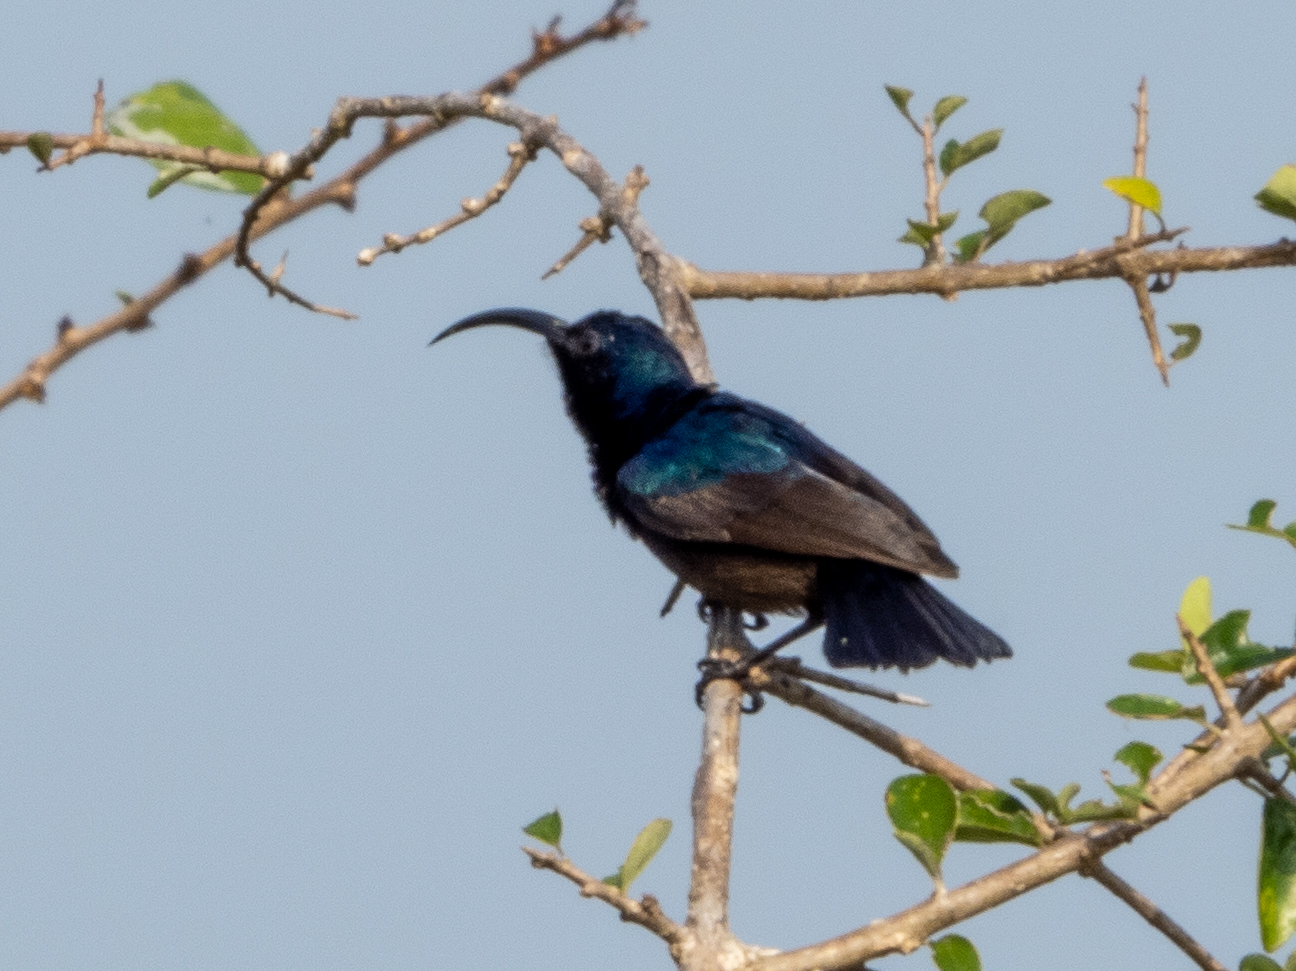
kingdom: Animalia
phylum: Chordata
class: Aves
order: Passeriformes
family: Nectariniidae
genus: Cinnyris
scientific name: Cinnyris lotenius
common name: Loten's sunbird
